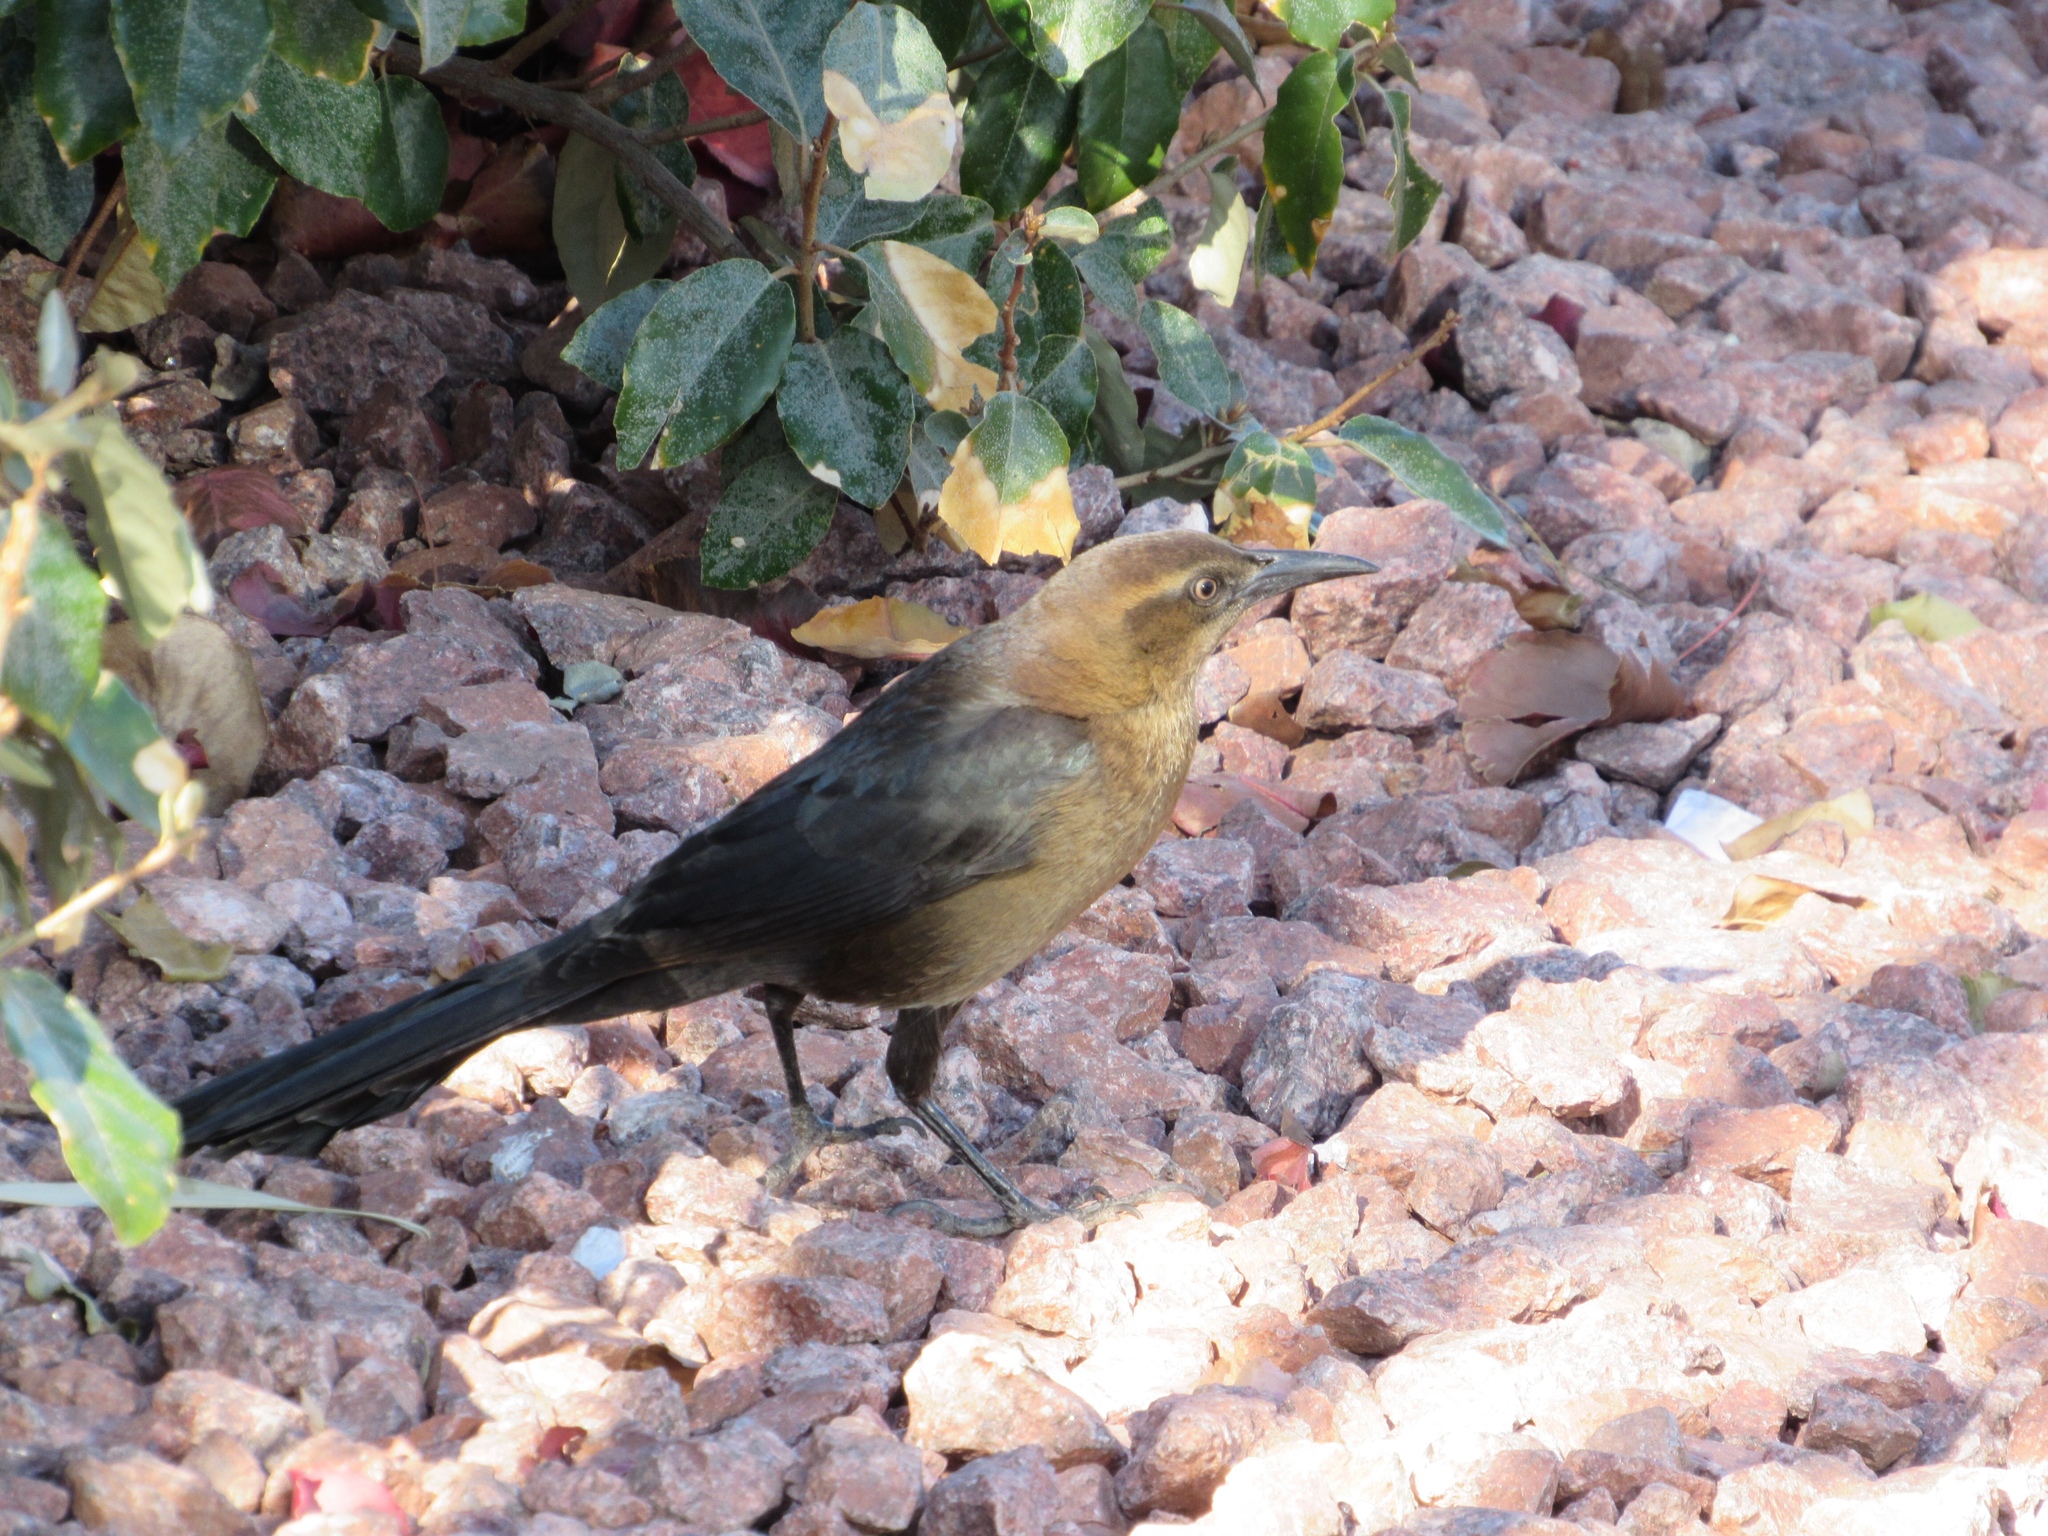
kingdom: Animalia
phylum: Chordata
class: Aves
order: Passeriformes
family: Icteridae
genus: Quiscalus
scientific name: Quiscalus mexicanus
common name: Great-tailed grackle
